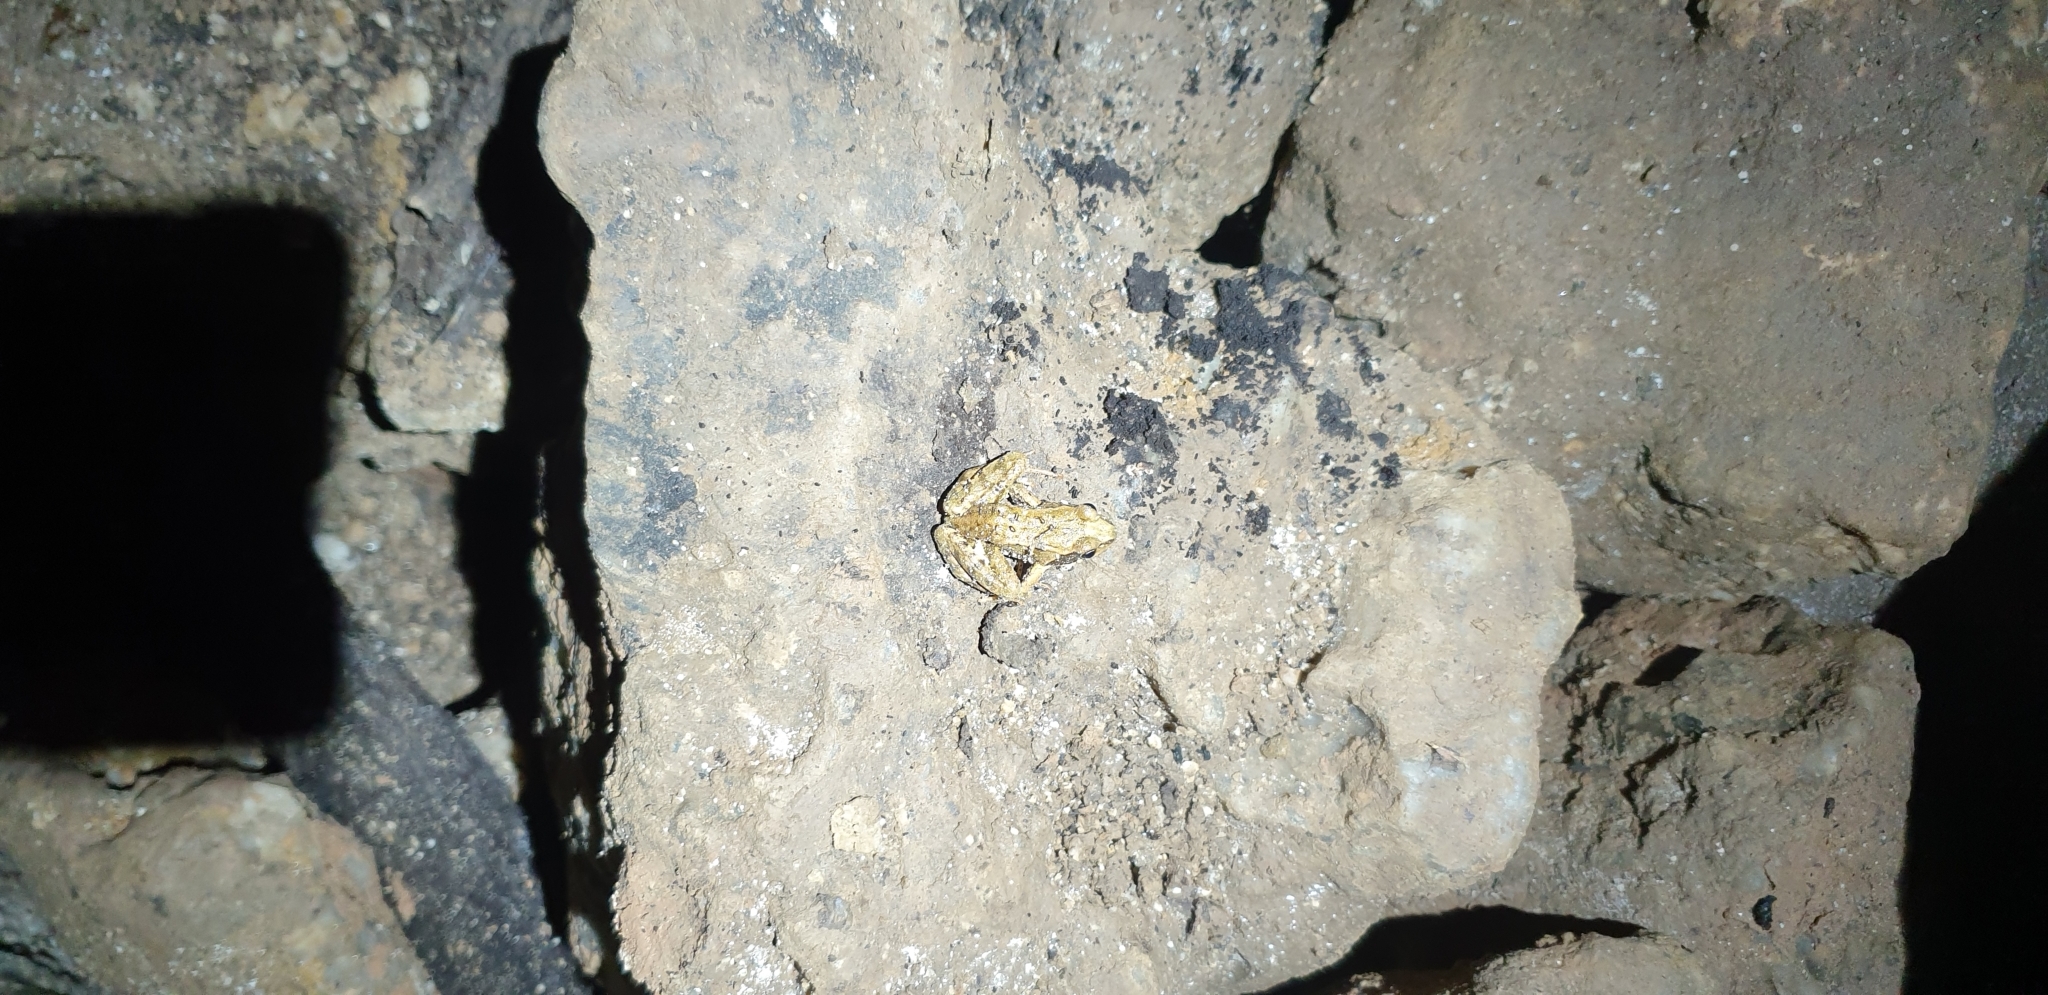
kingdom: Animalia
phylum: Chordata
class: Amphibia
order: Anura
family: Ranidae
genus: Rana
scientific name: Rana temporaria
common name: Common frog
